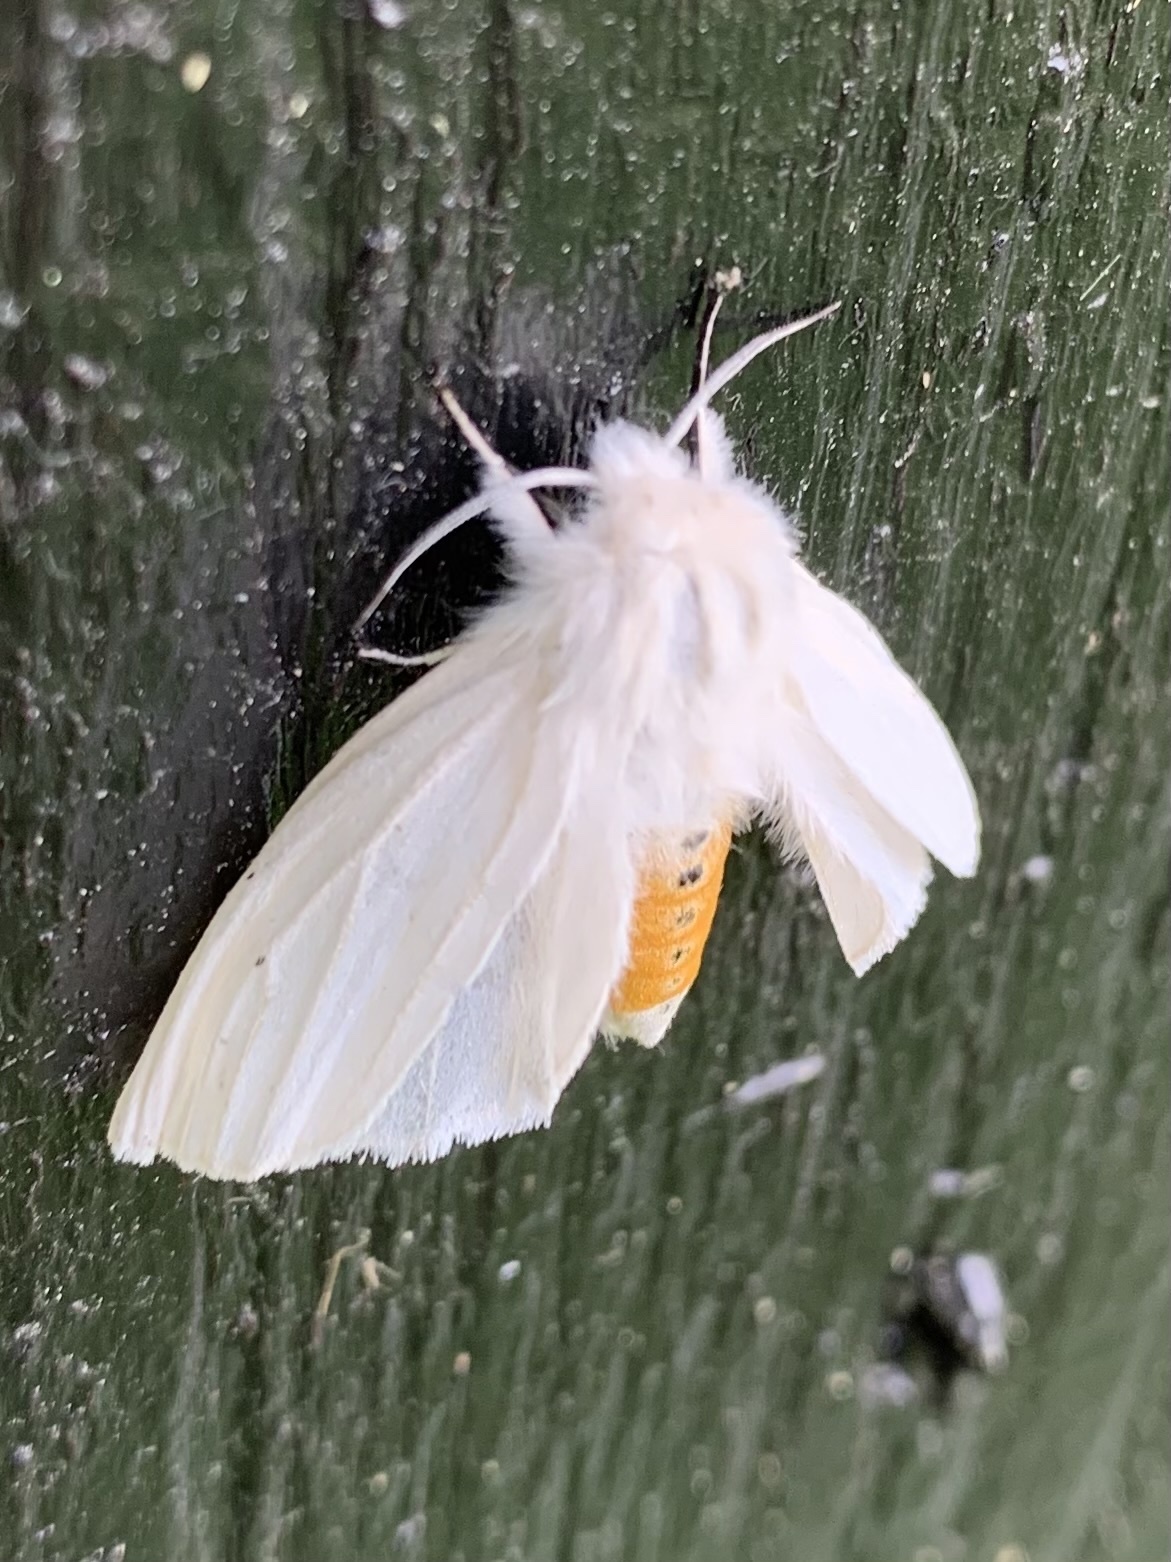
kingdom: Animalia
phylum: Arthropoda
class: Insecta
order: Lepidoptera
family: Erebidae
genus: Spilosoma
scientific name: Spilosoma urticae
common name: Water ermine
